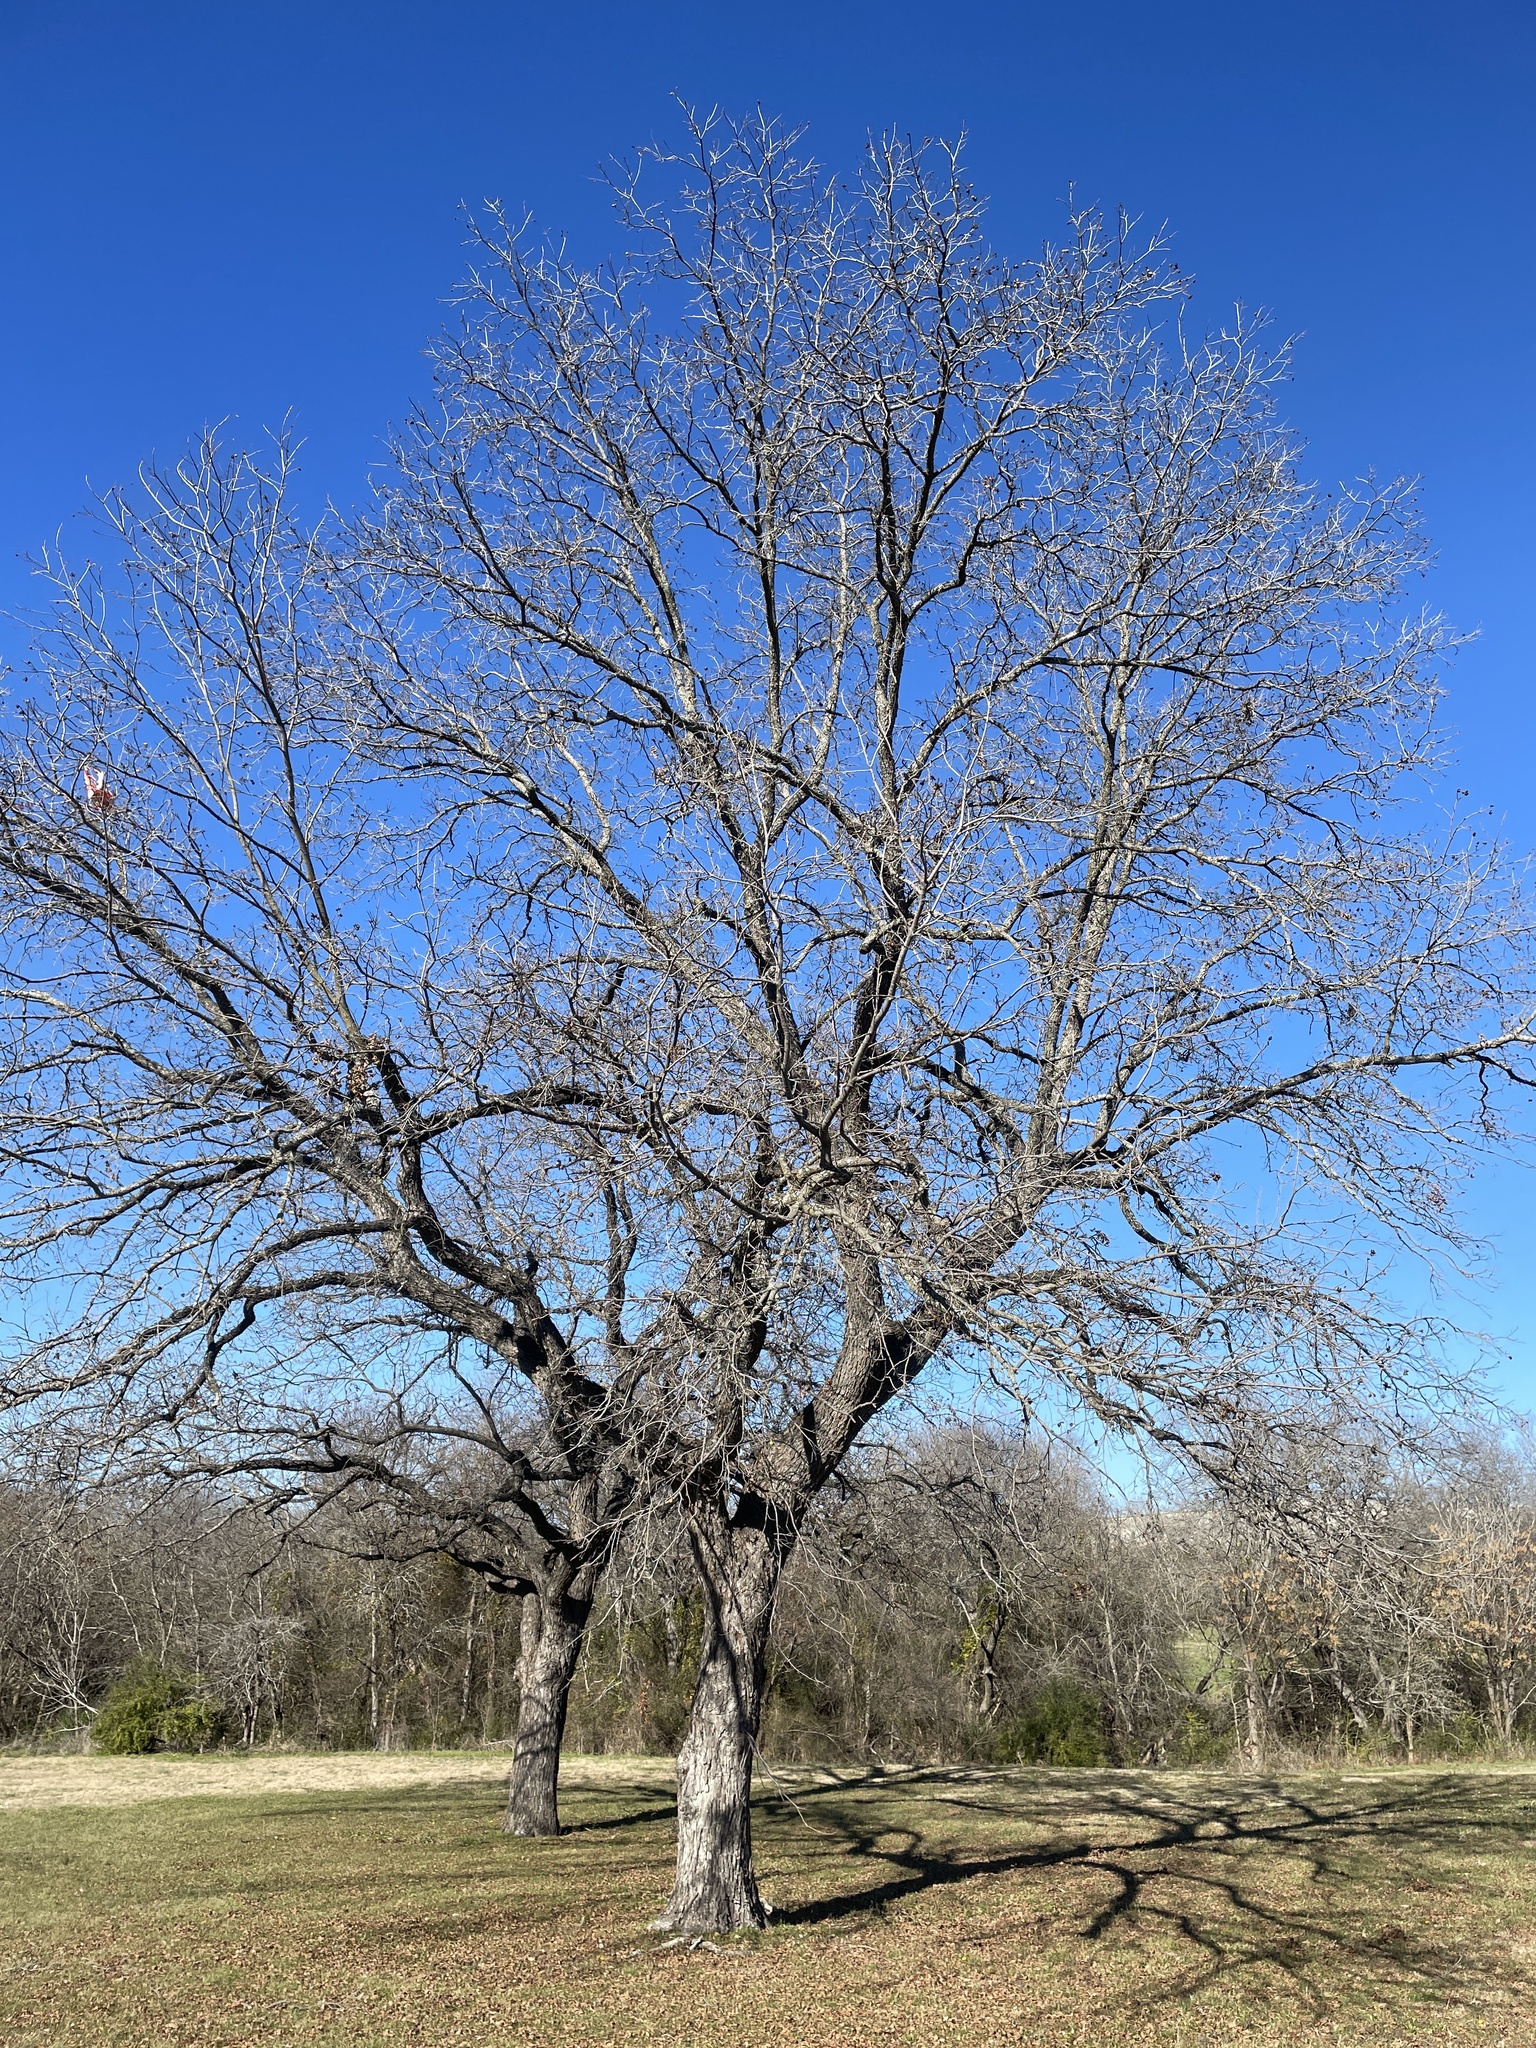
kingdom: Plantae
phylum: Tracheophyta
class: Magnoliopsida
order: Fagales
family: Juglandaceae
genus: Carya
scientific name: Carya illinoinensis
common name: Pecan
